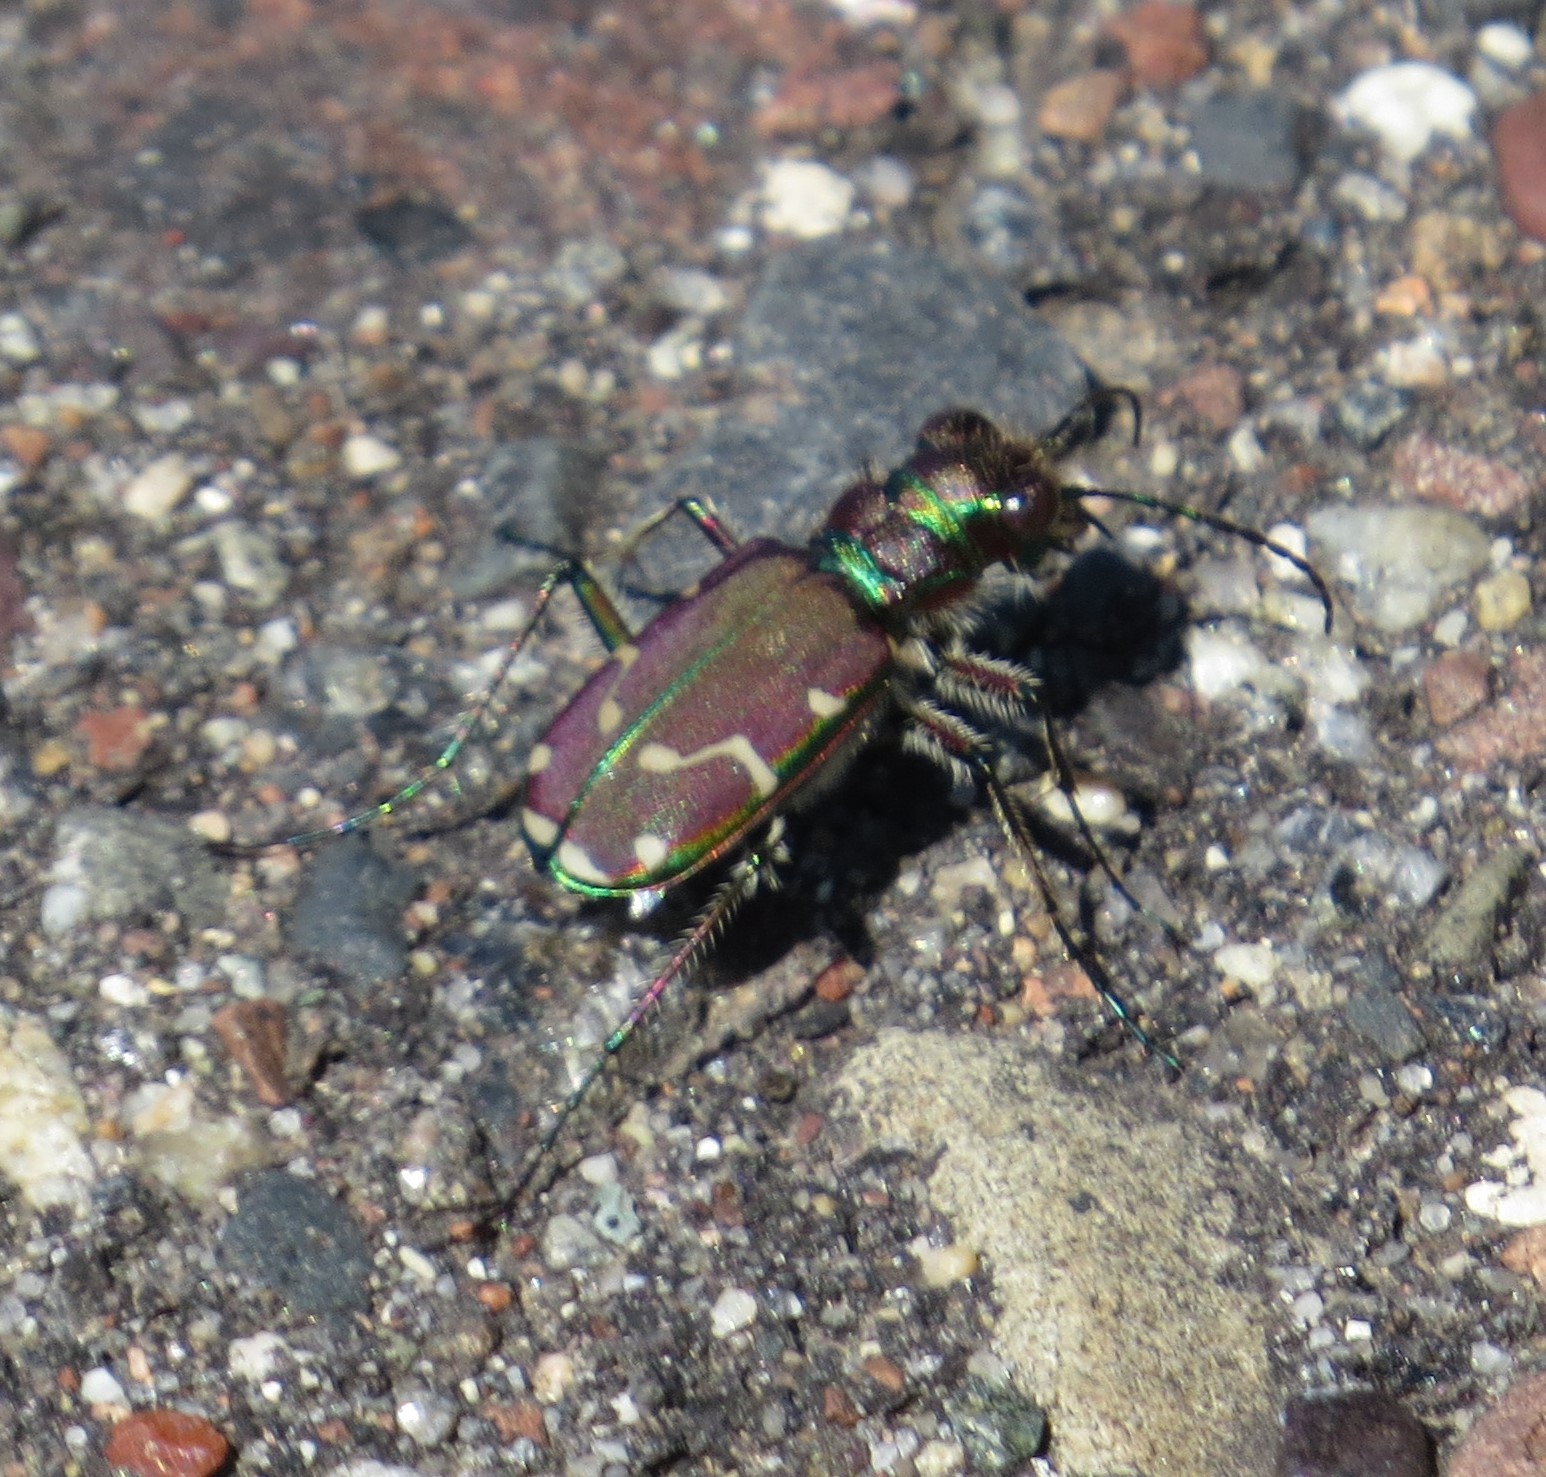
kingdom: Animalia
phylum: Arthropoda
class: Insecta
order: Coleoptera
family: Carabidae
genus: Cicindela
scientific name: Cicindela limbalis
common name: Common claybank tiger beetle
